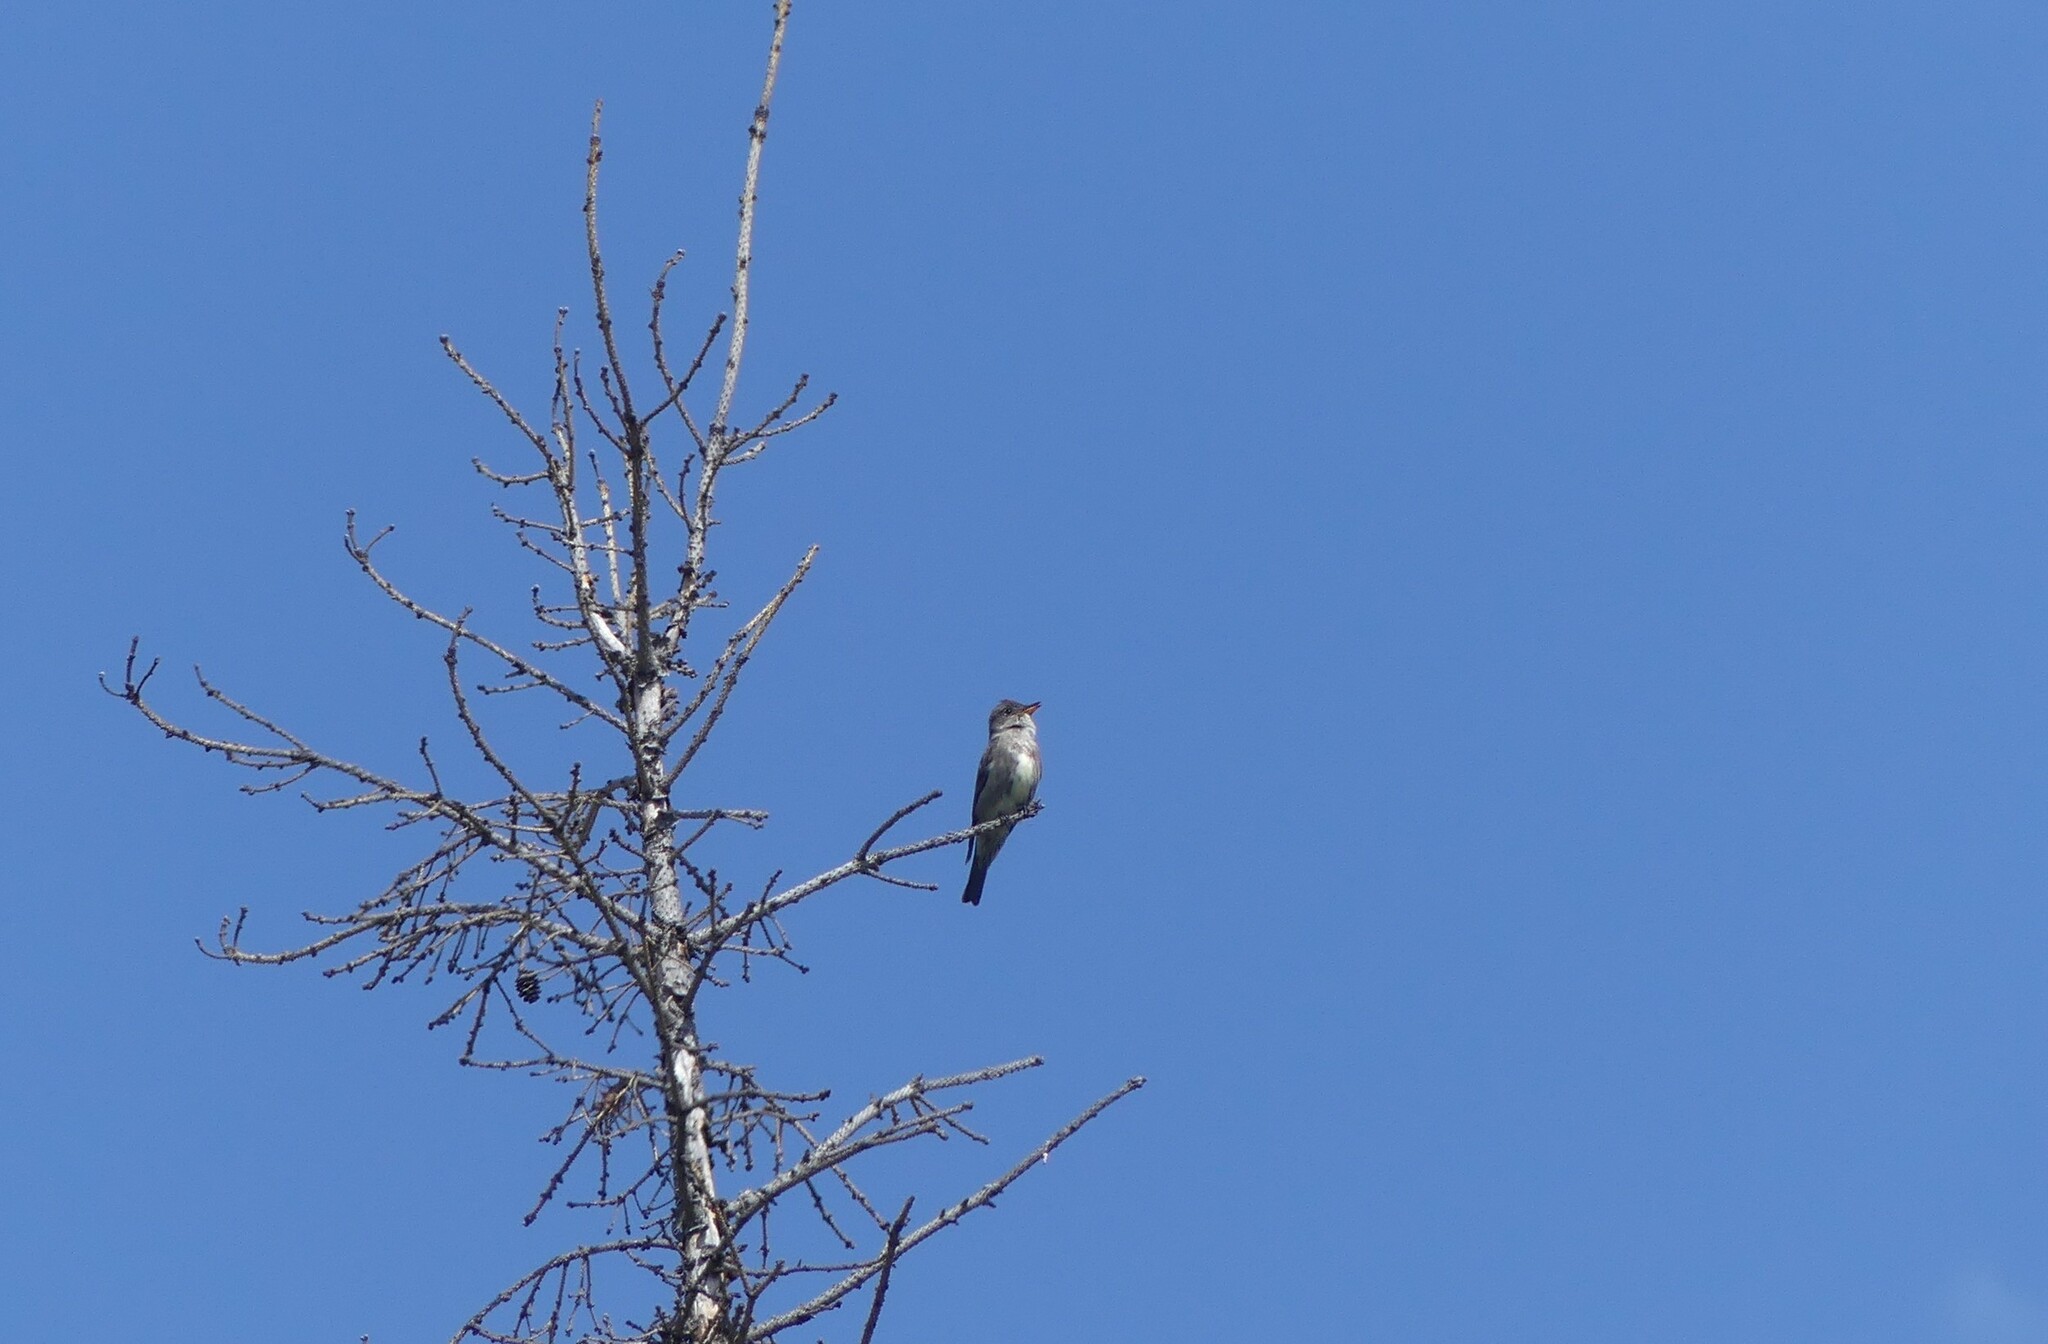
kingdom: Animalia
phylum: Chordata
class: Aves
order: Passeriformes
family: Tyrannidae
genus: Contopus
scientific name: Contopus cooperi
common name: Olive-sided flycatcher
